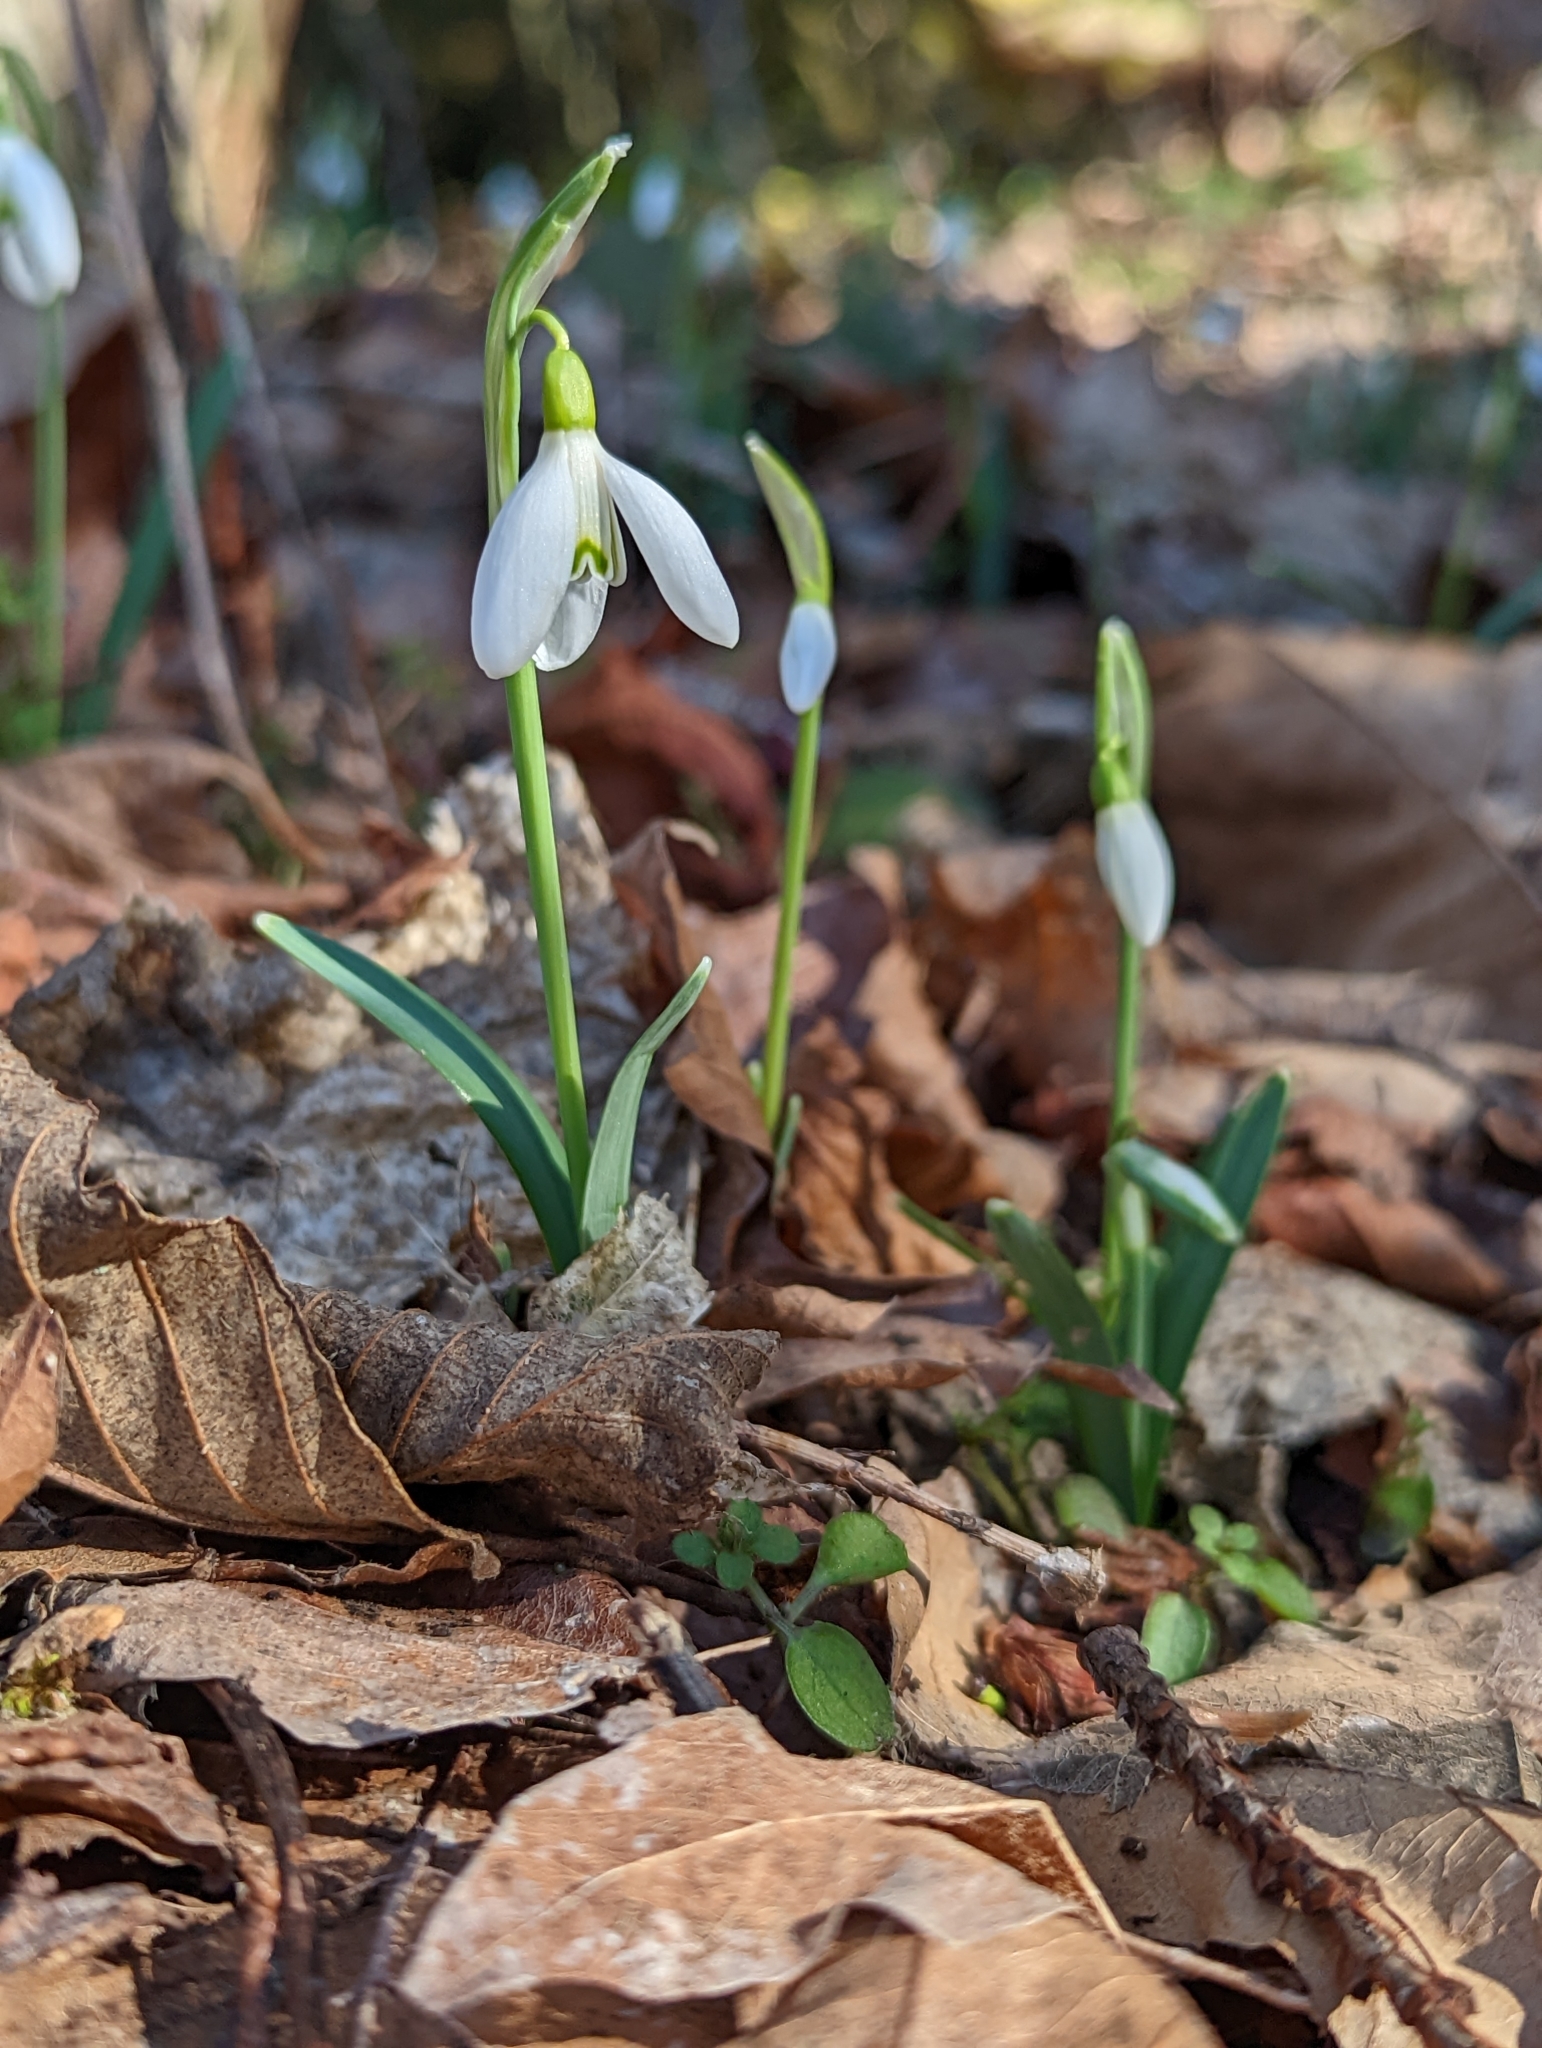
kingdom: Plantae
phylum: Tracheophyta
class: Liliopsida
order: Asparagales
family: Amaryllidaceae
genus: Galanthus
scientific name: Galanthus nivalis
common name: Snowdrop
